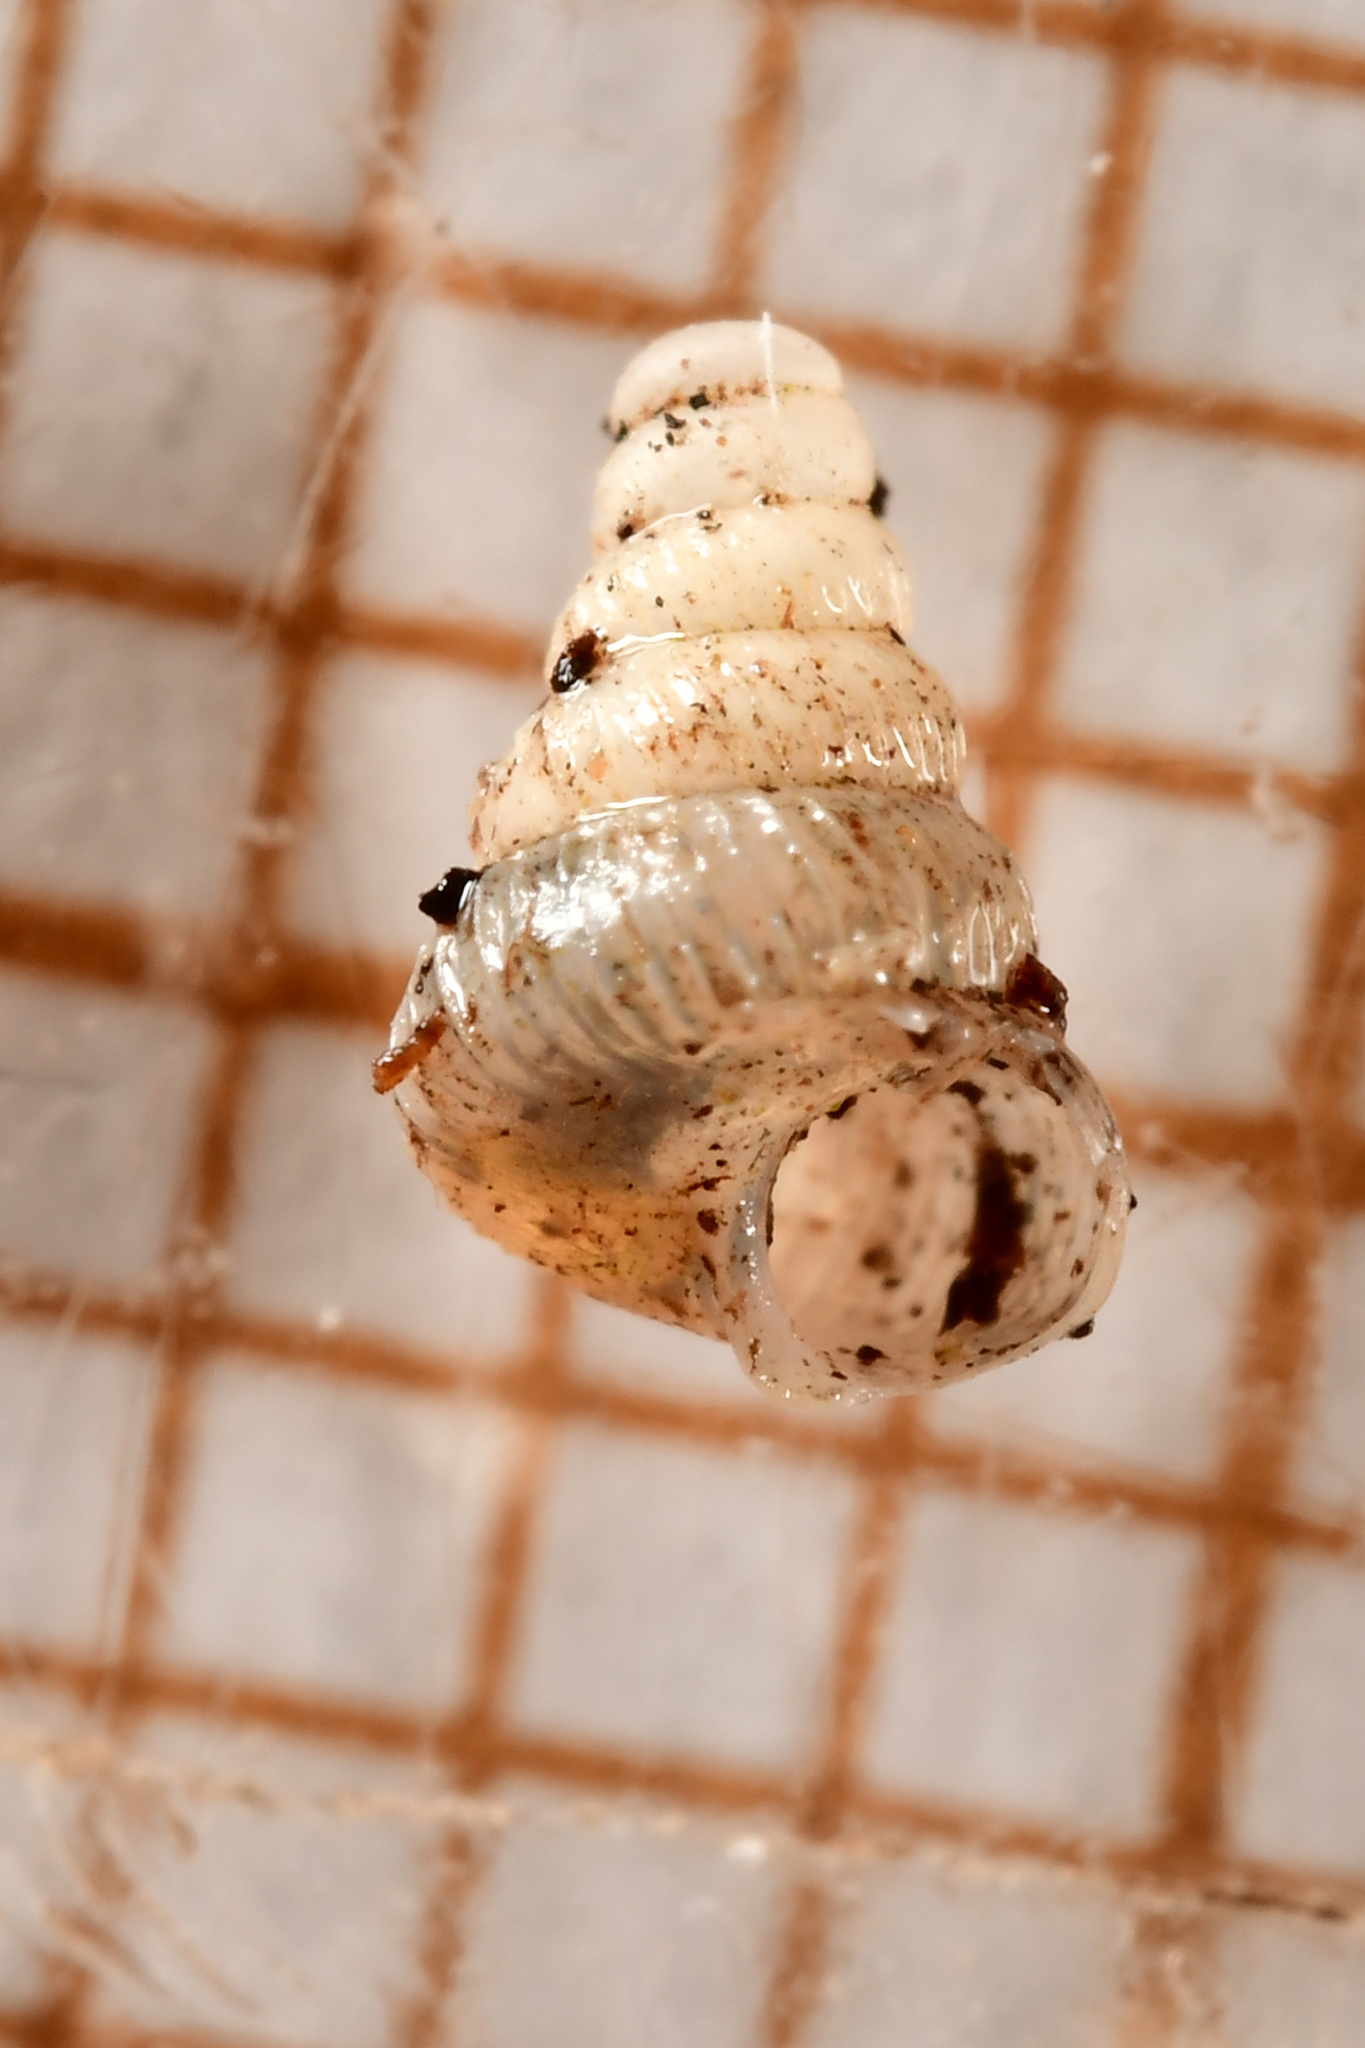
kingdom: Animalia
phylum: Mollusca
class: Gastropoda
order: Architaenioglossa
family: Cochlostomatidae
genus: Cochlostoma
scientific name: Cochlostoma septemspirale
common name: Seven-whorl snail
